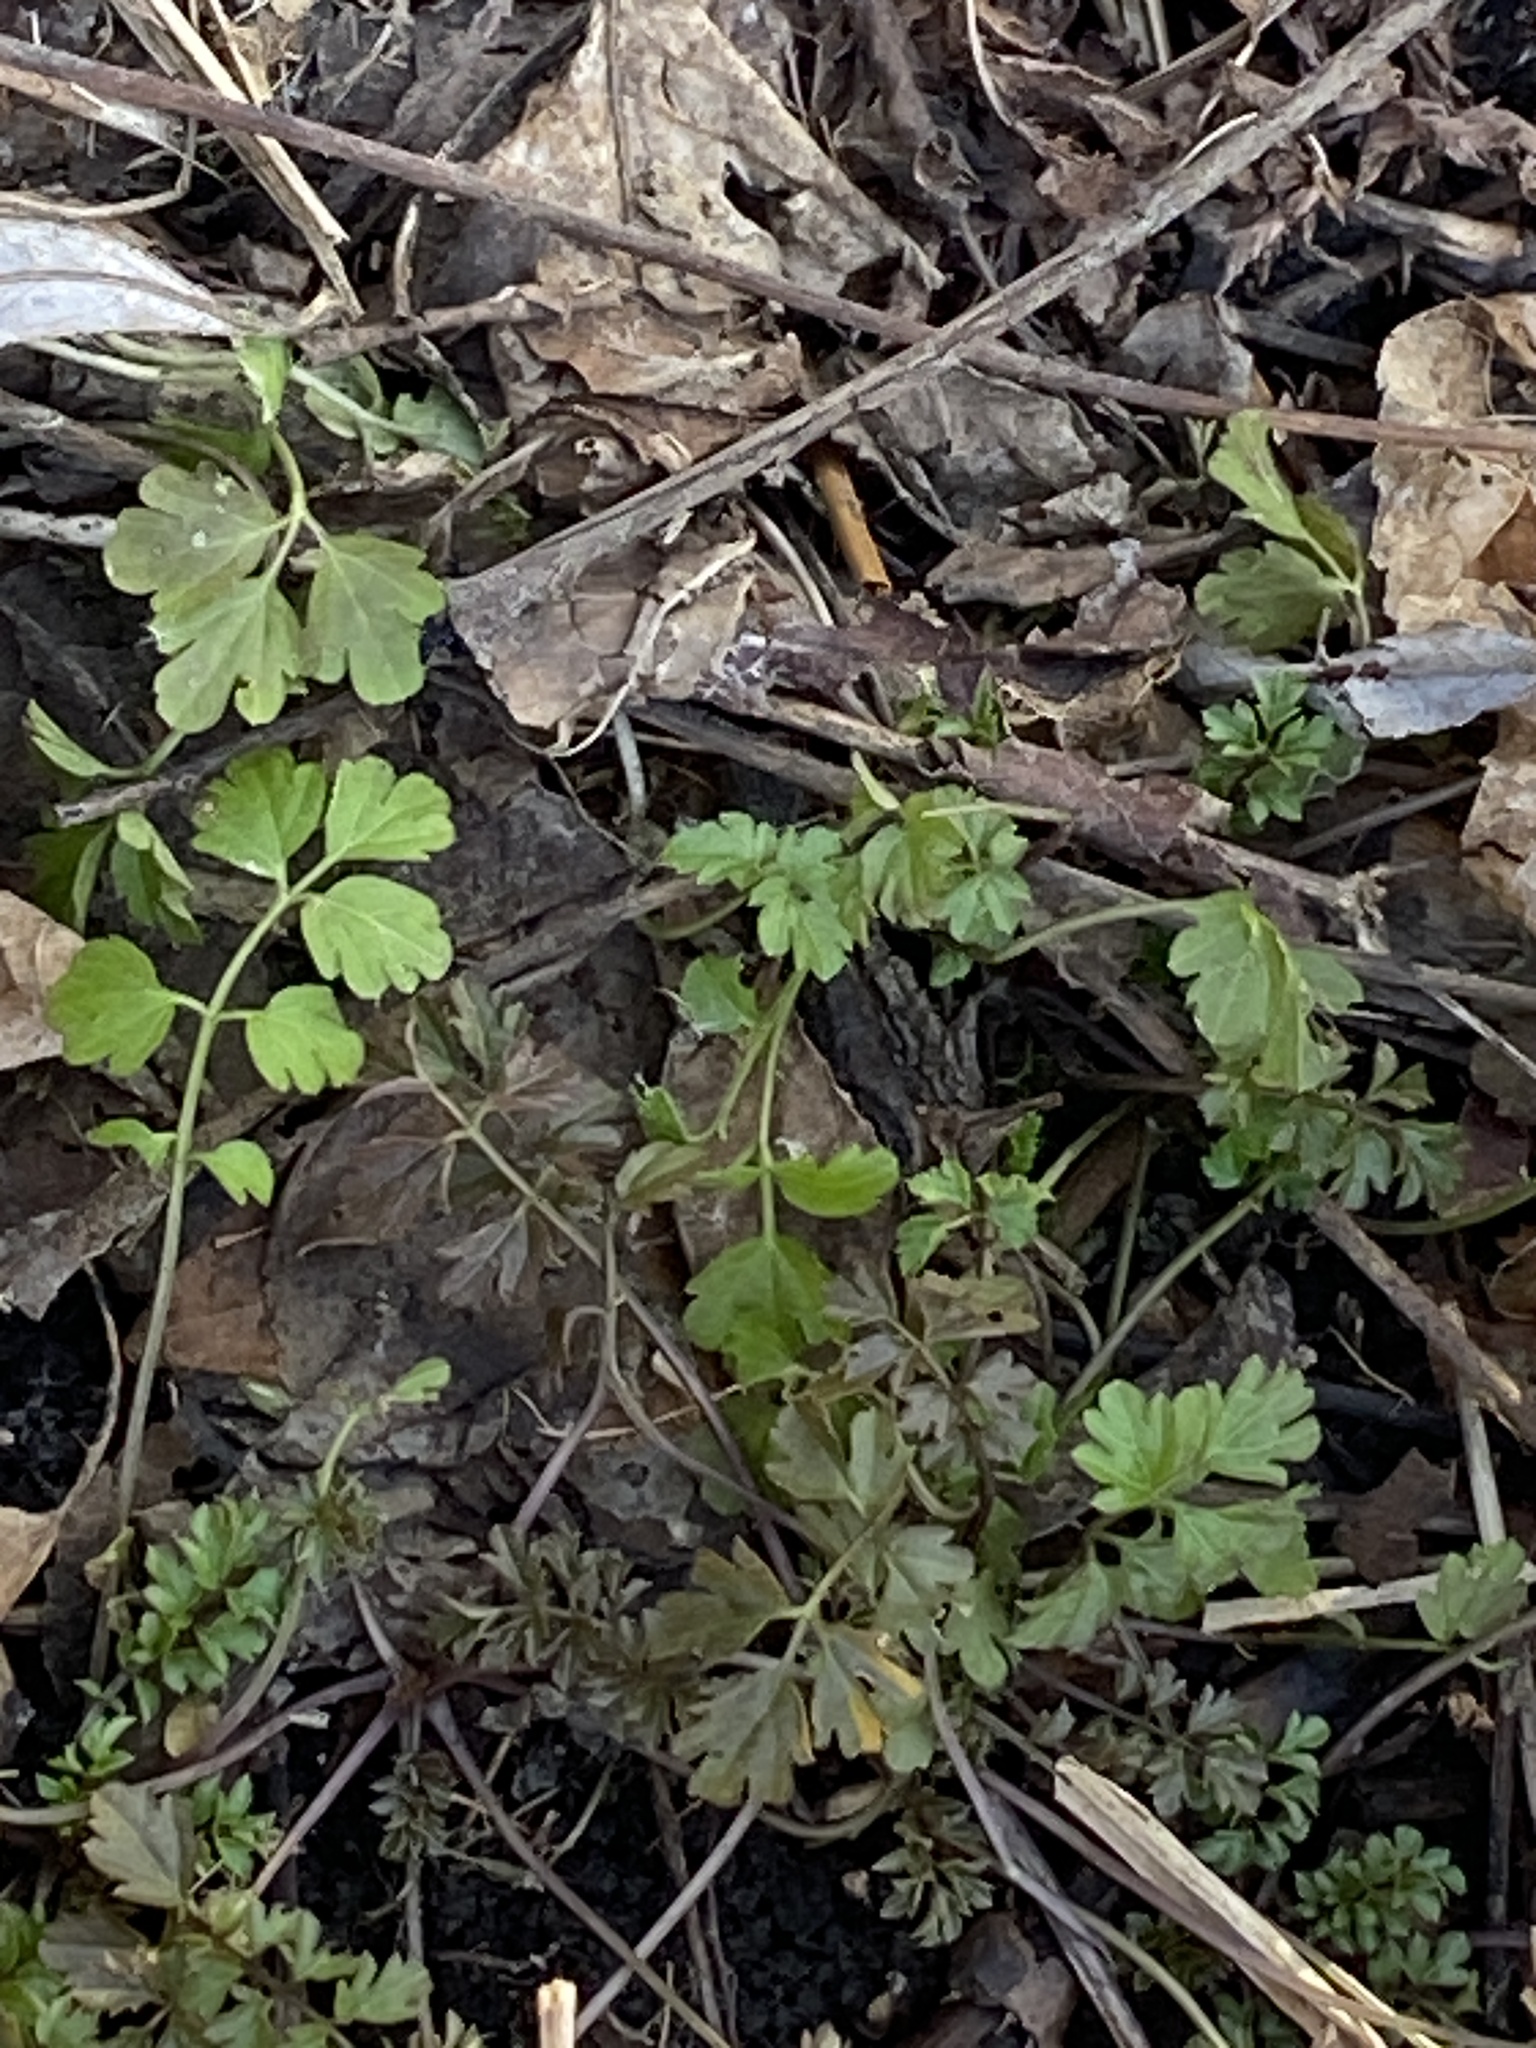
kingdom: Plantae
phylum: Tracheophyta
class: Magnoliopsida
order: Brassicales
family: Brassicaceae
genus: Cardamine
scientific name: Cardamine impatiens
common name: Narrow-leaved bitter-cress
